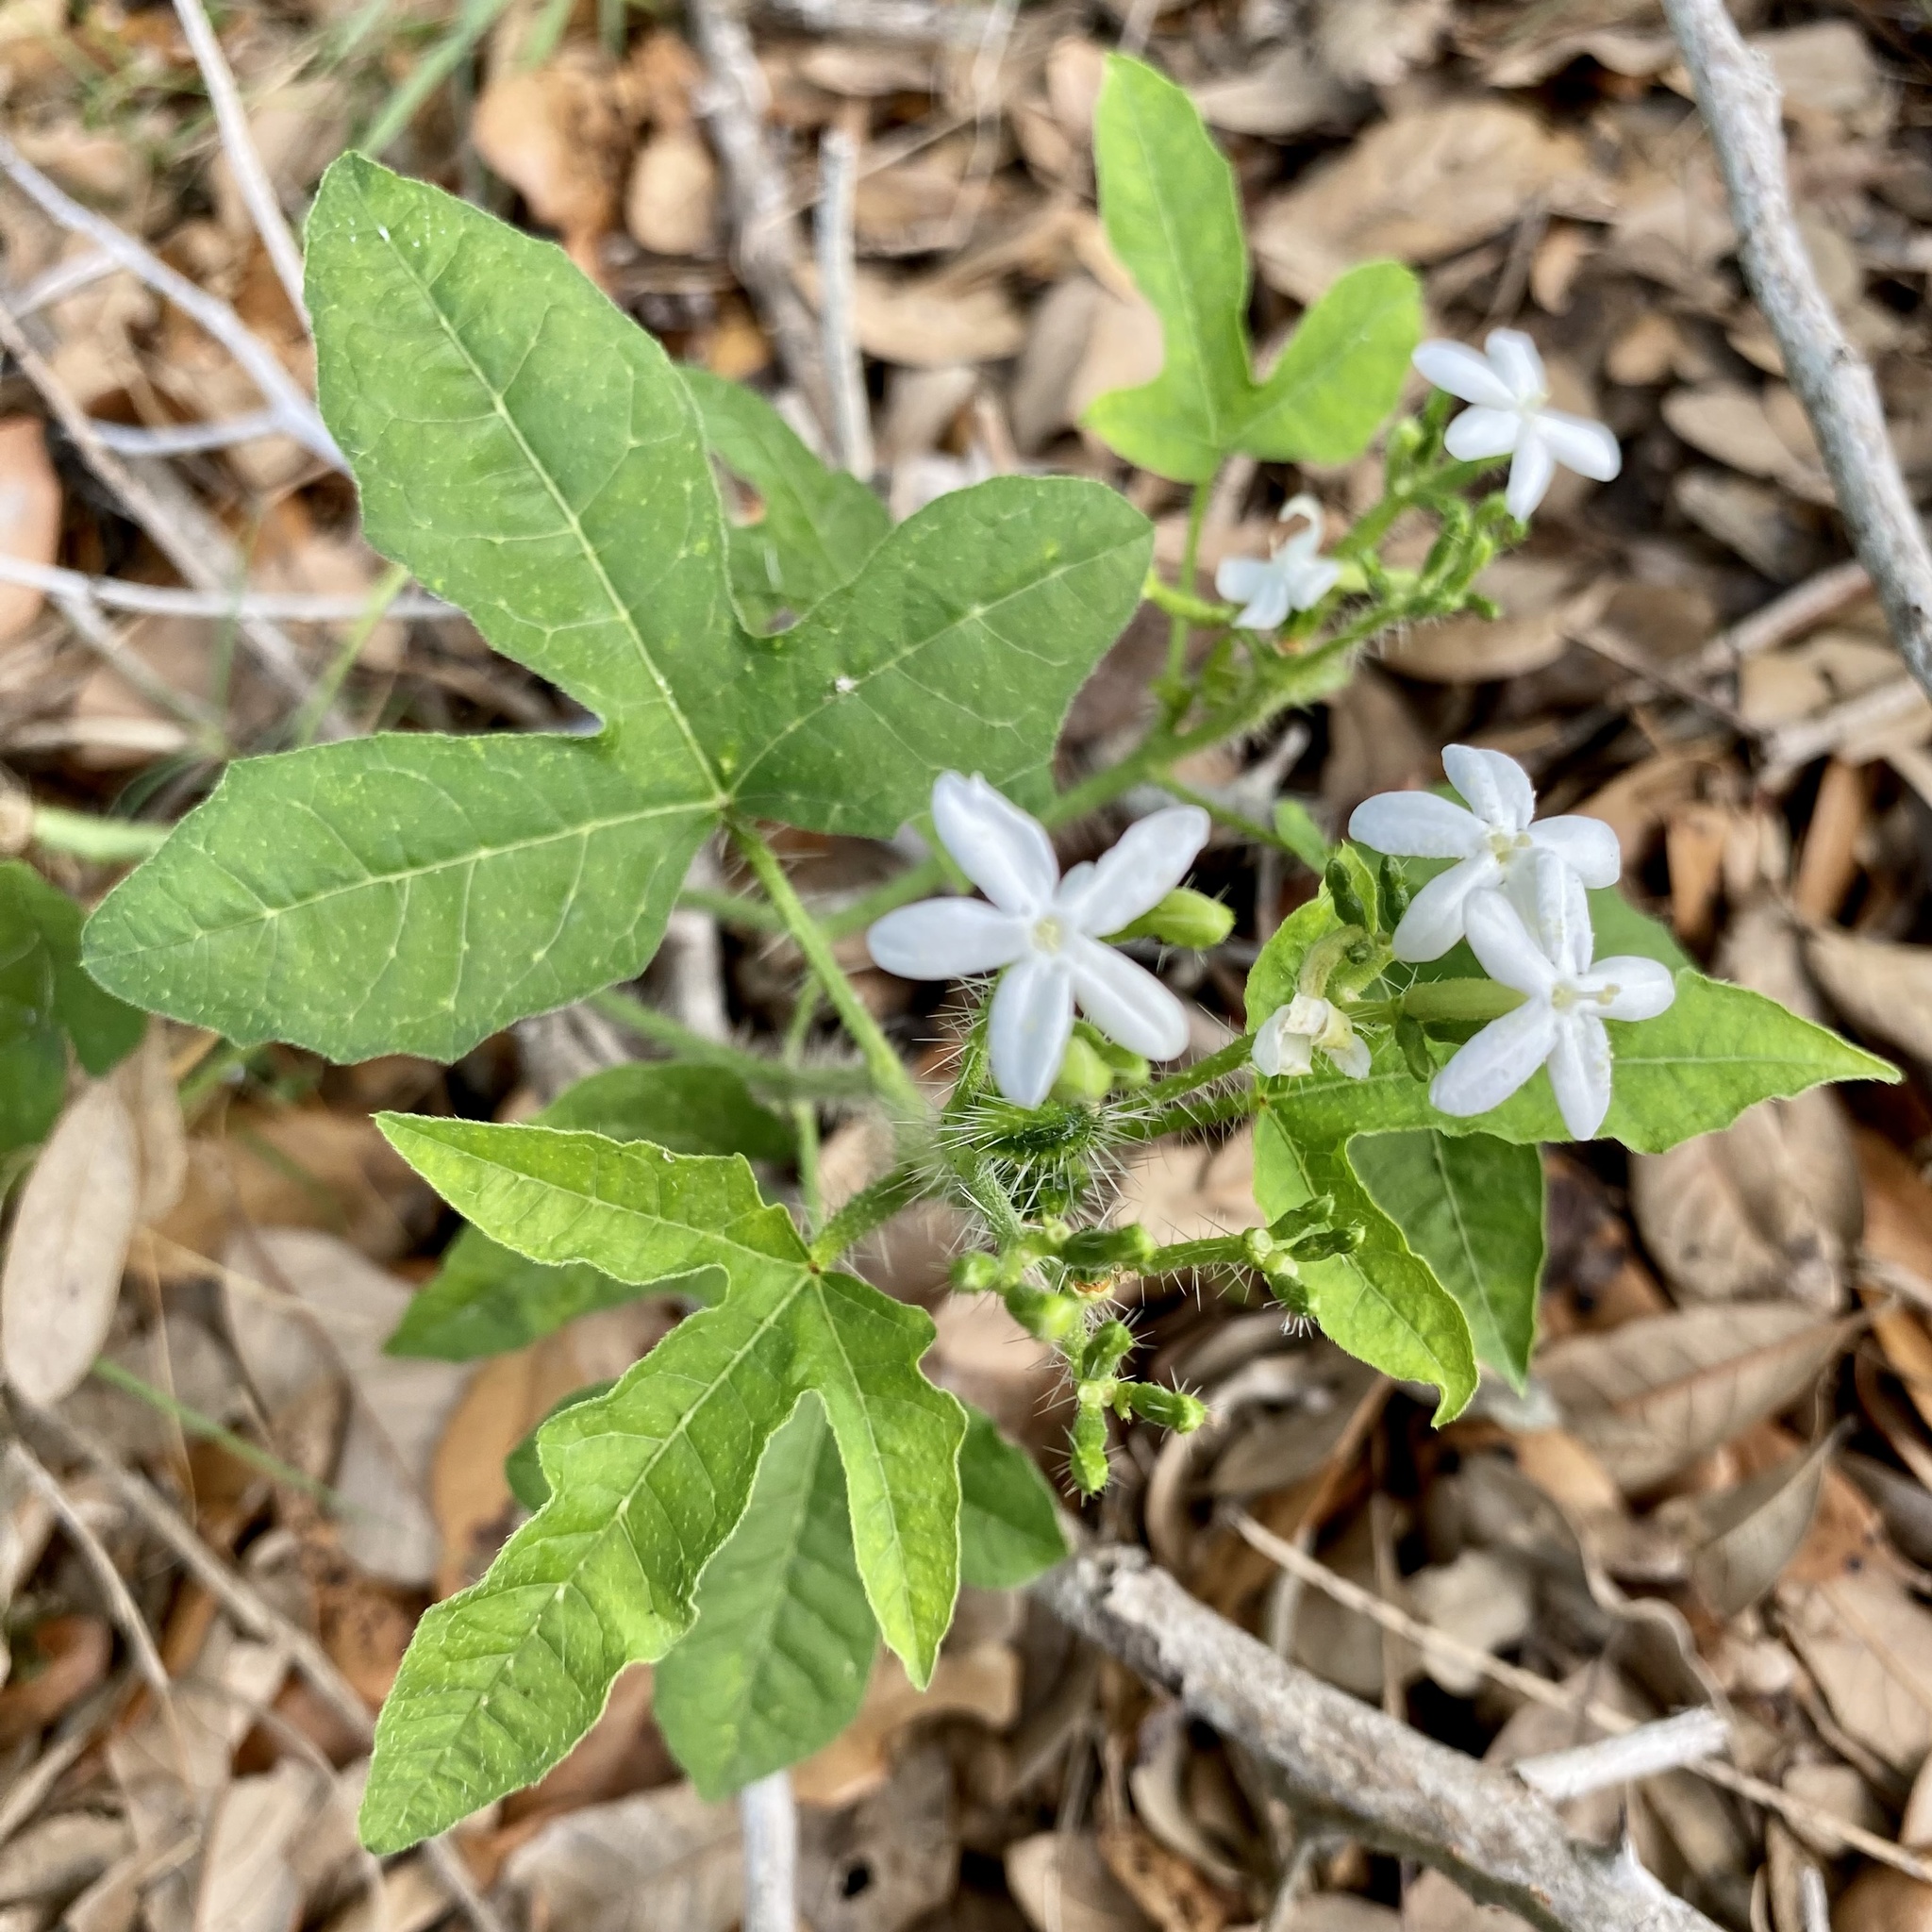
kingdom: Plantae
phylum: Tracheophyta
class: Magnoliopsida
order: Malpighiales
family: Euphorbiaceae
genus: Cnidoscolus
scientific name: Cnidoscolus stimulosus
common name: Bull-nettle
